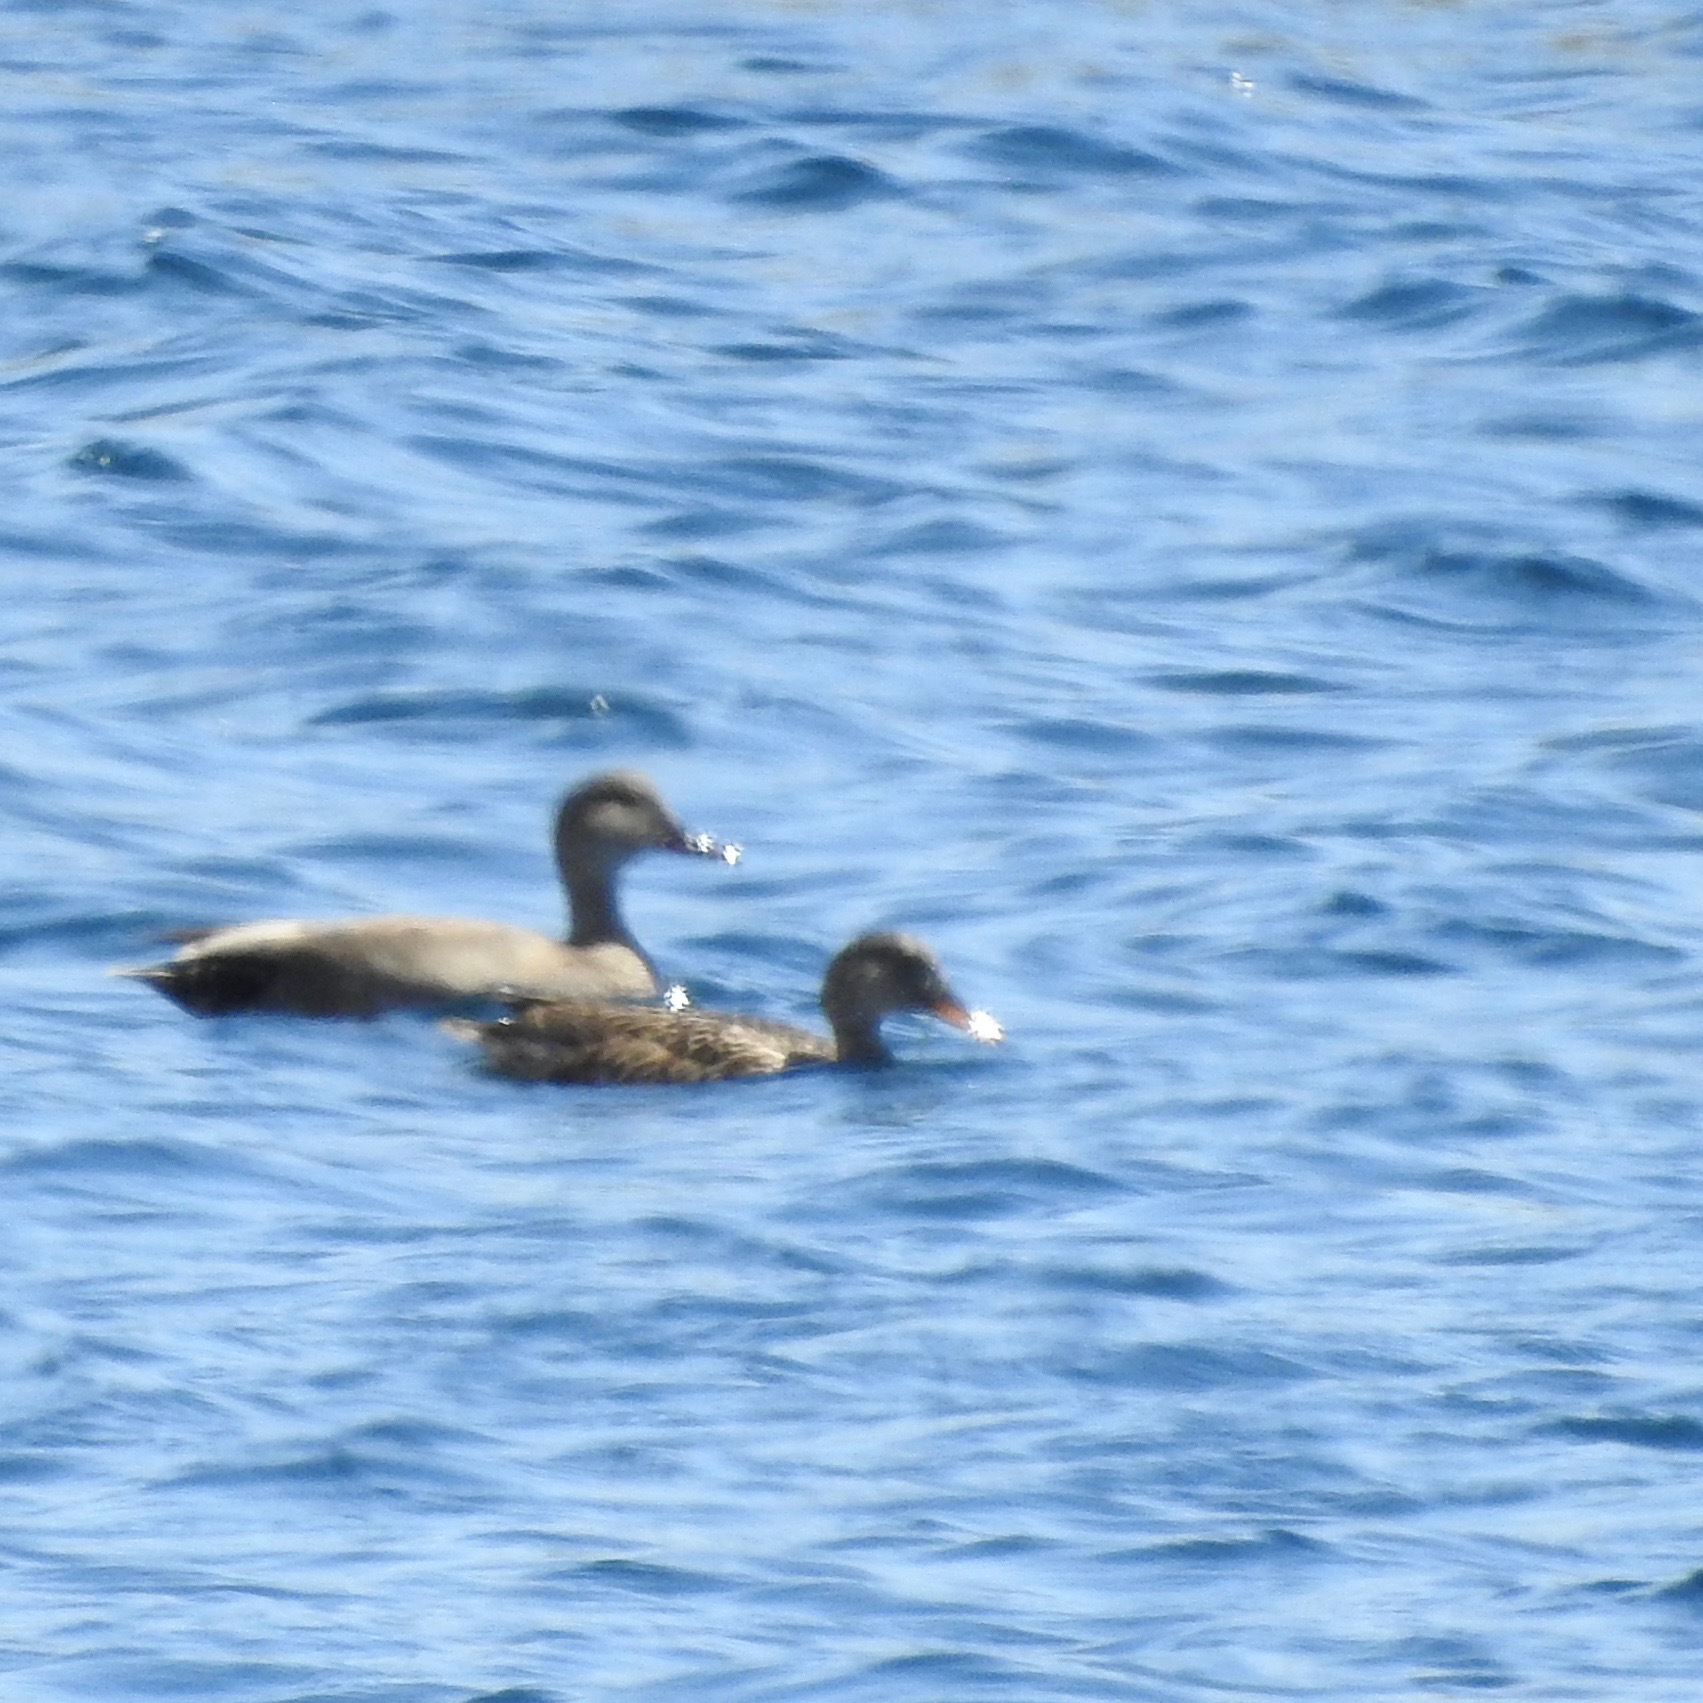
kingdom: Animalia
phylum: Chordata
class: Aves
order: Anseriformes
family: Anatidae
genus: Mareca
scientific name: Mareca strepera
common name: Gadwall
